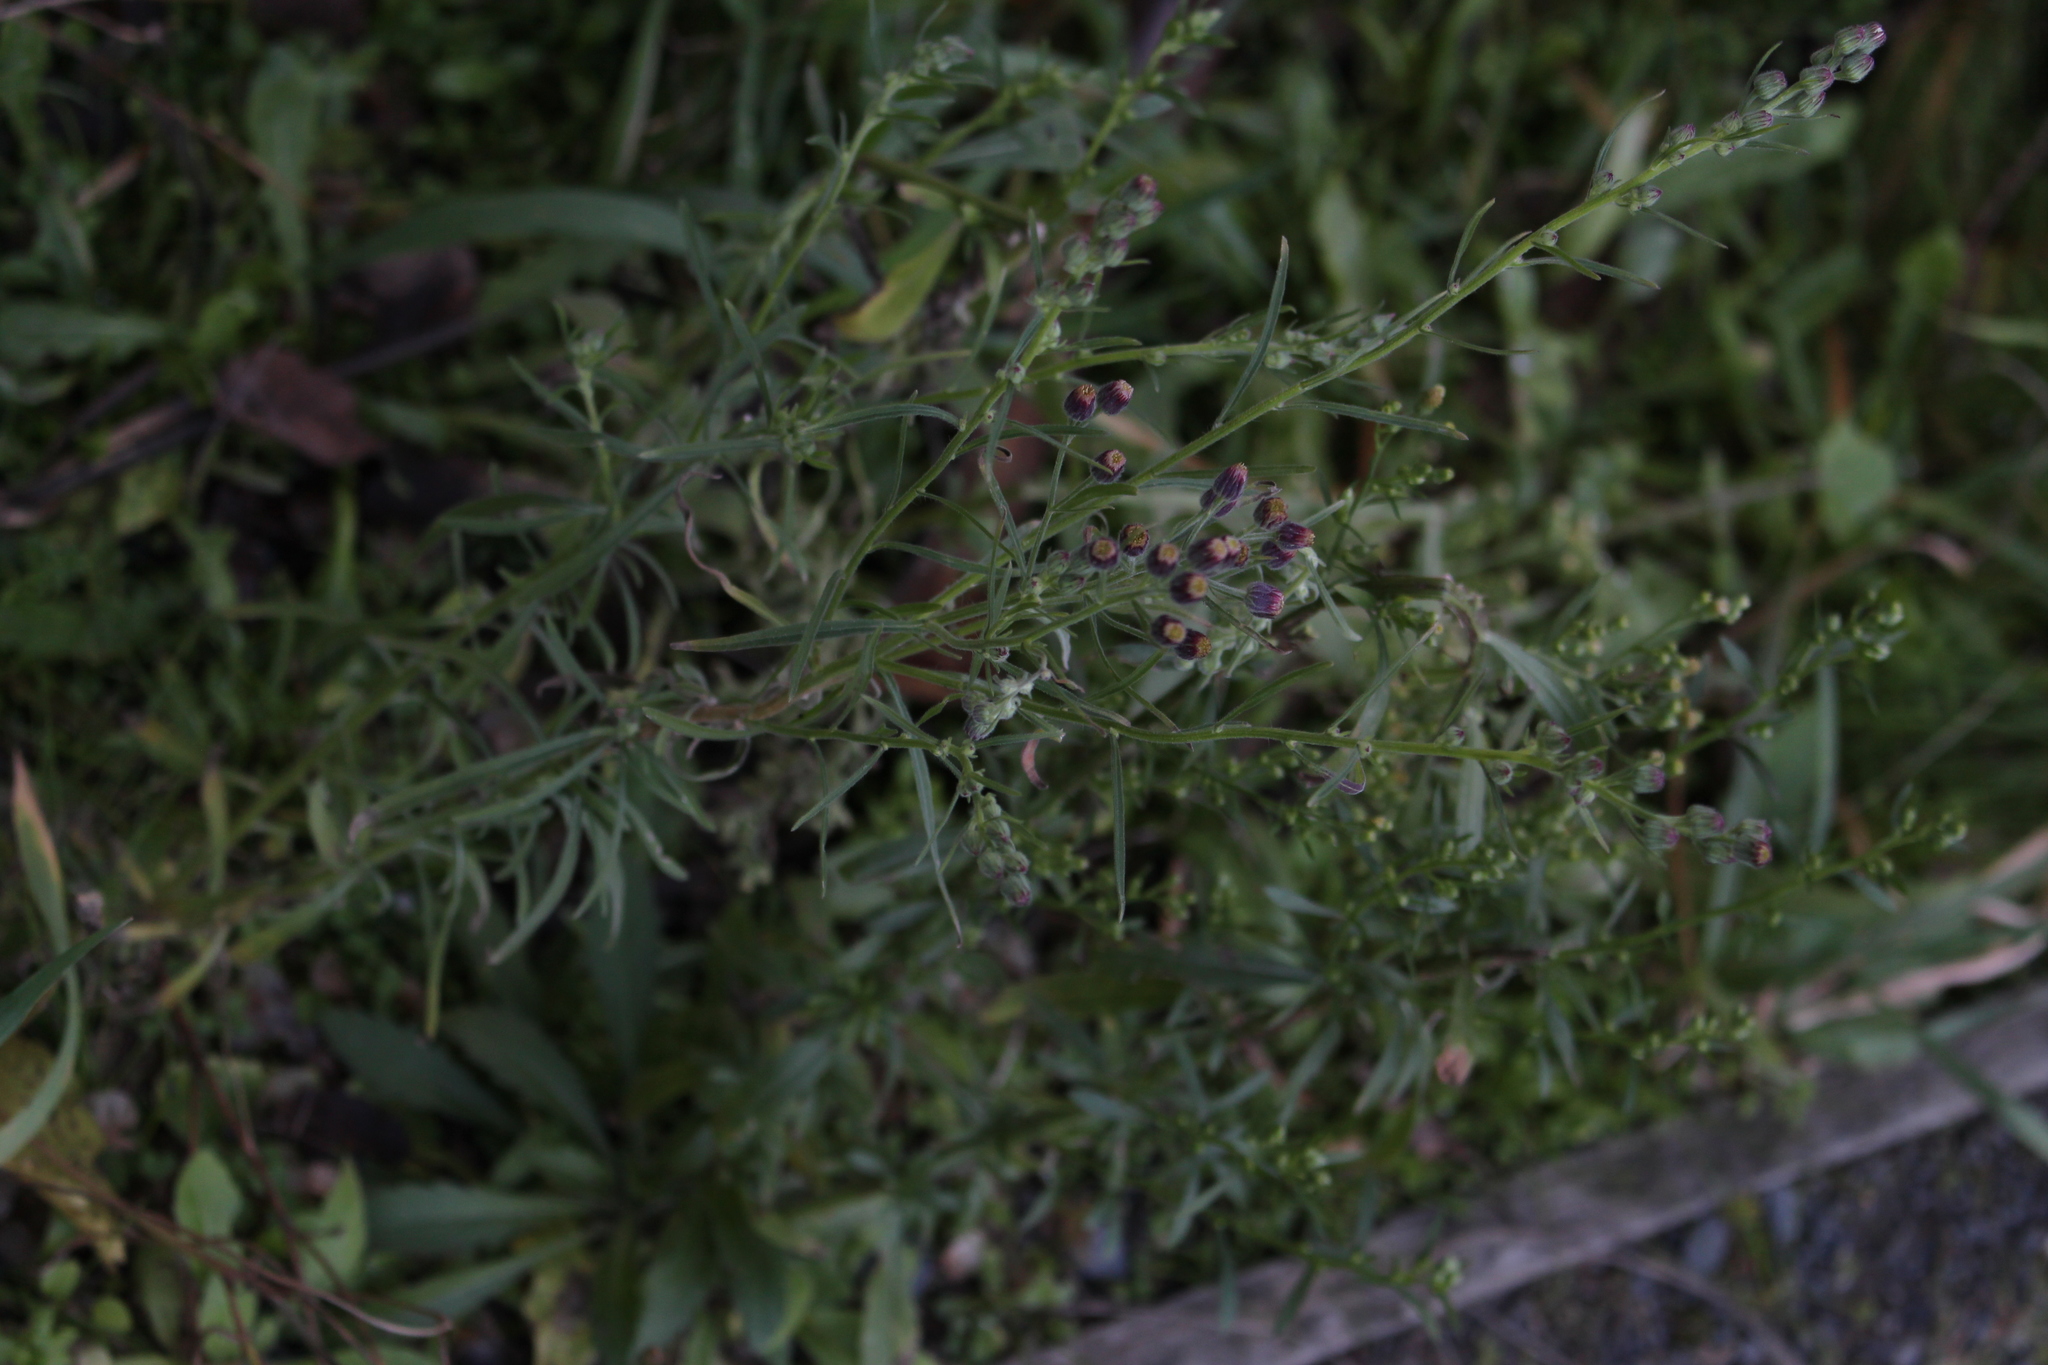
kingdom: Plantae
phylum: Tracheophyta
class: Magnoliopsida
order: Asterales
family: Asteraceae
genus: Erigeron
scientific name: Erigeron bonariensis
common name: Argentine fleabane
